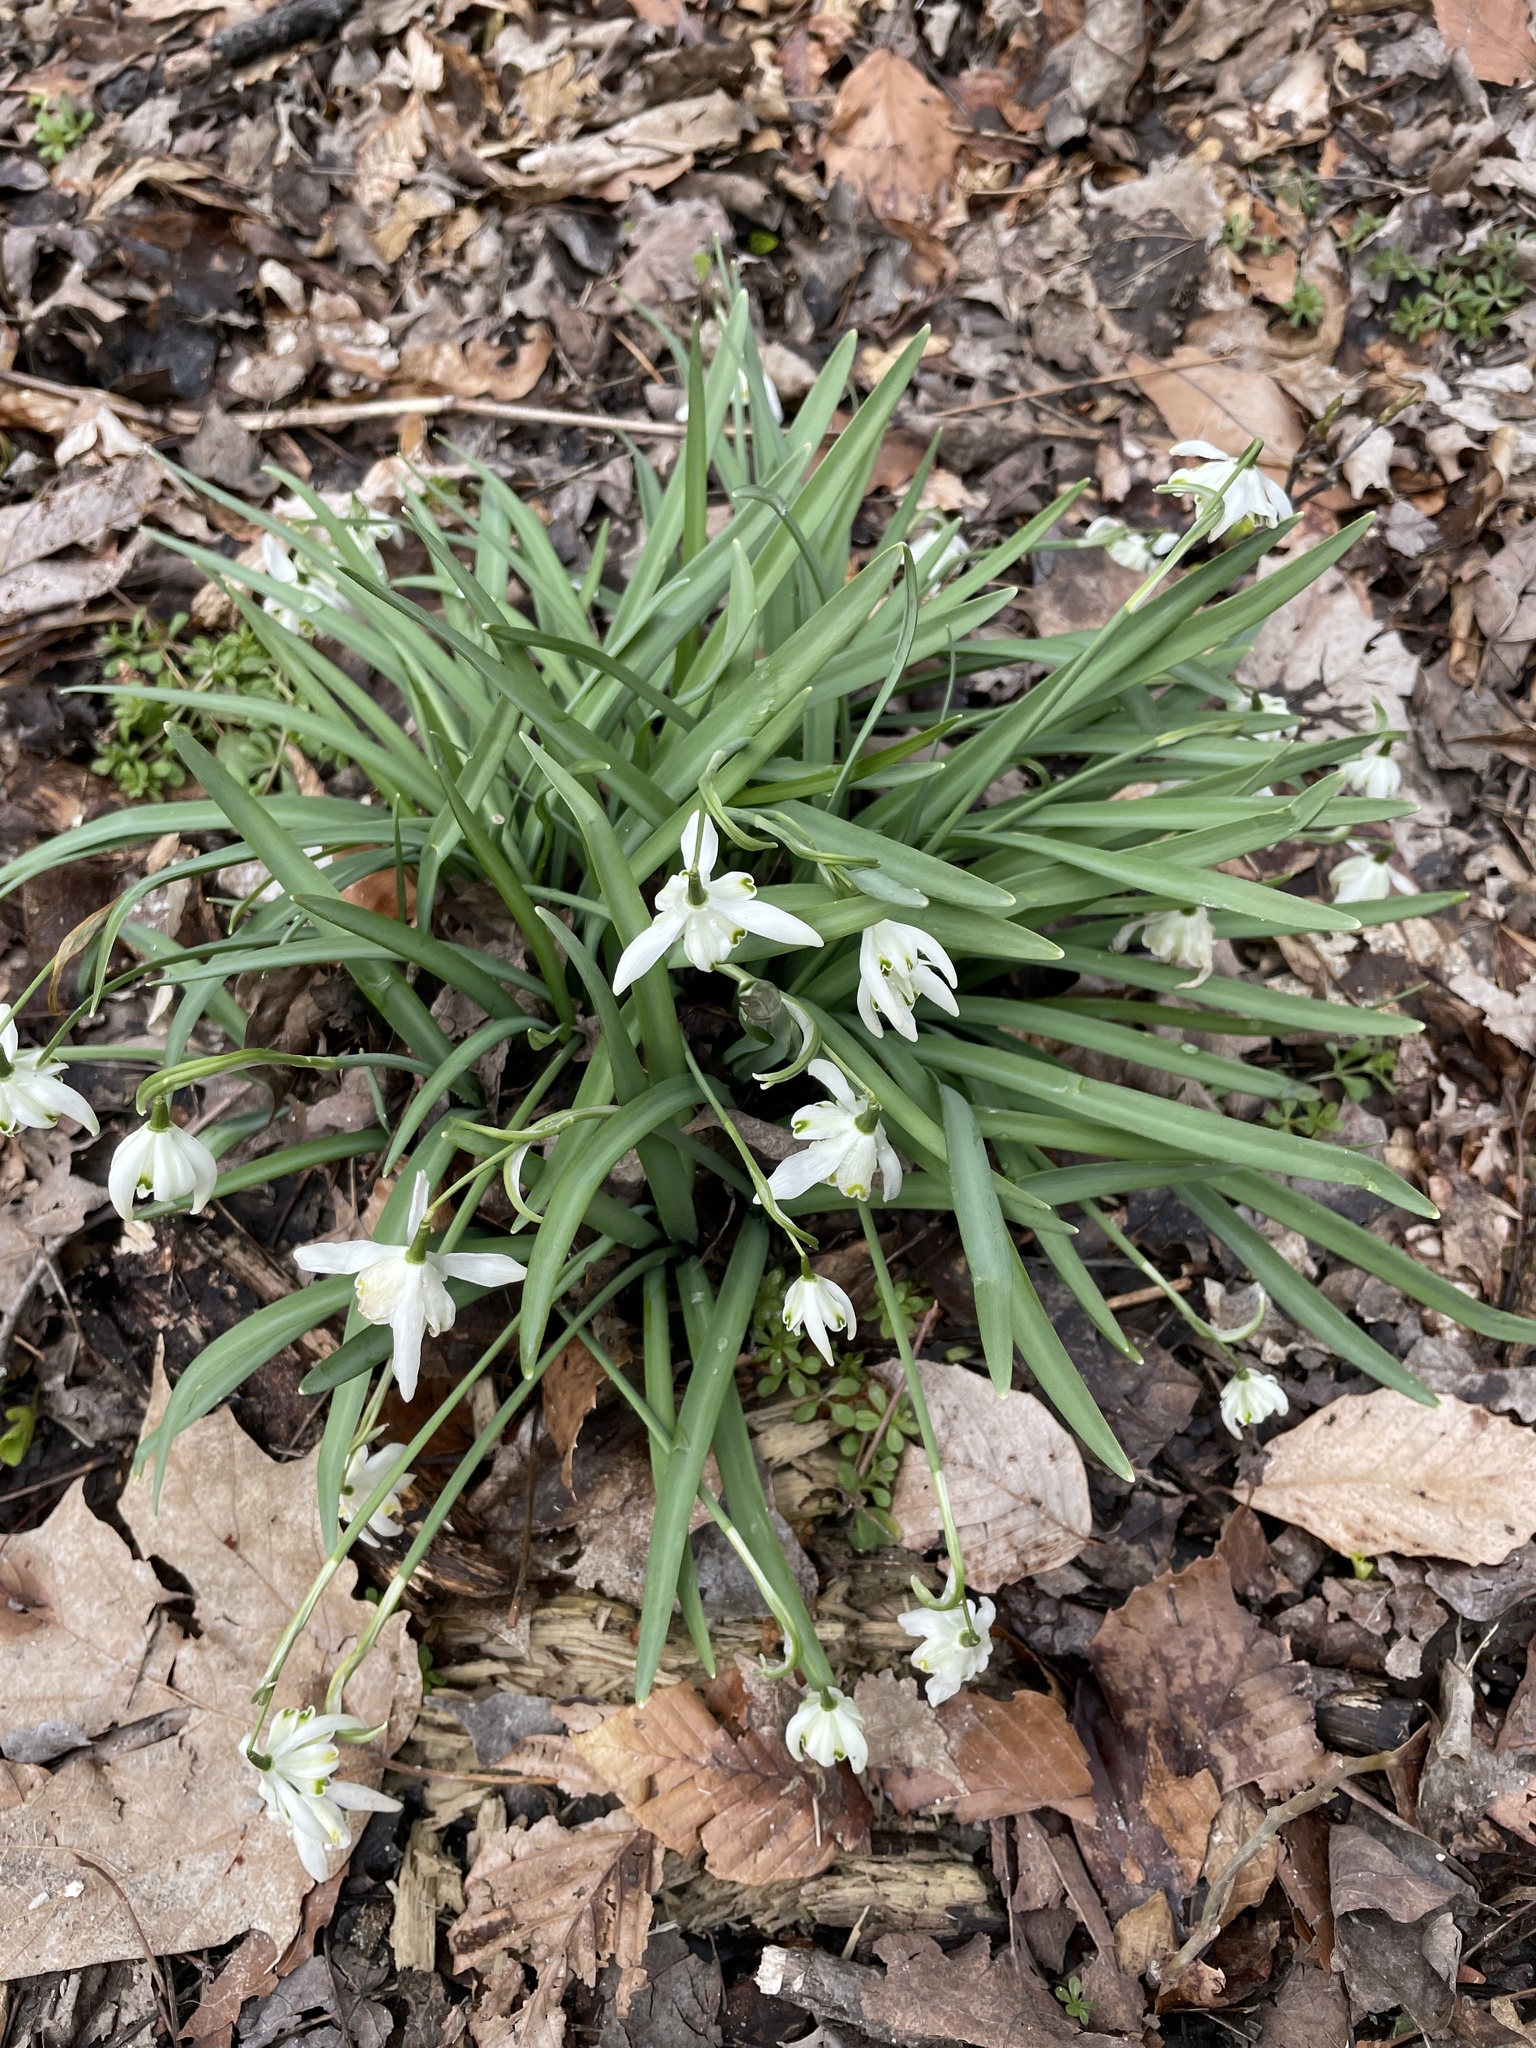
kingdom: Plantae
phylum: Tracheophyta
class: Liliopsida
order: Asparagales
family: Amaryllidaceae
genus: Galanthus
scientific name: Galanthus nivalis
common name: Snowdrop
